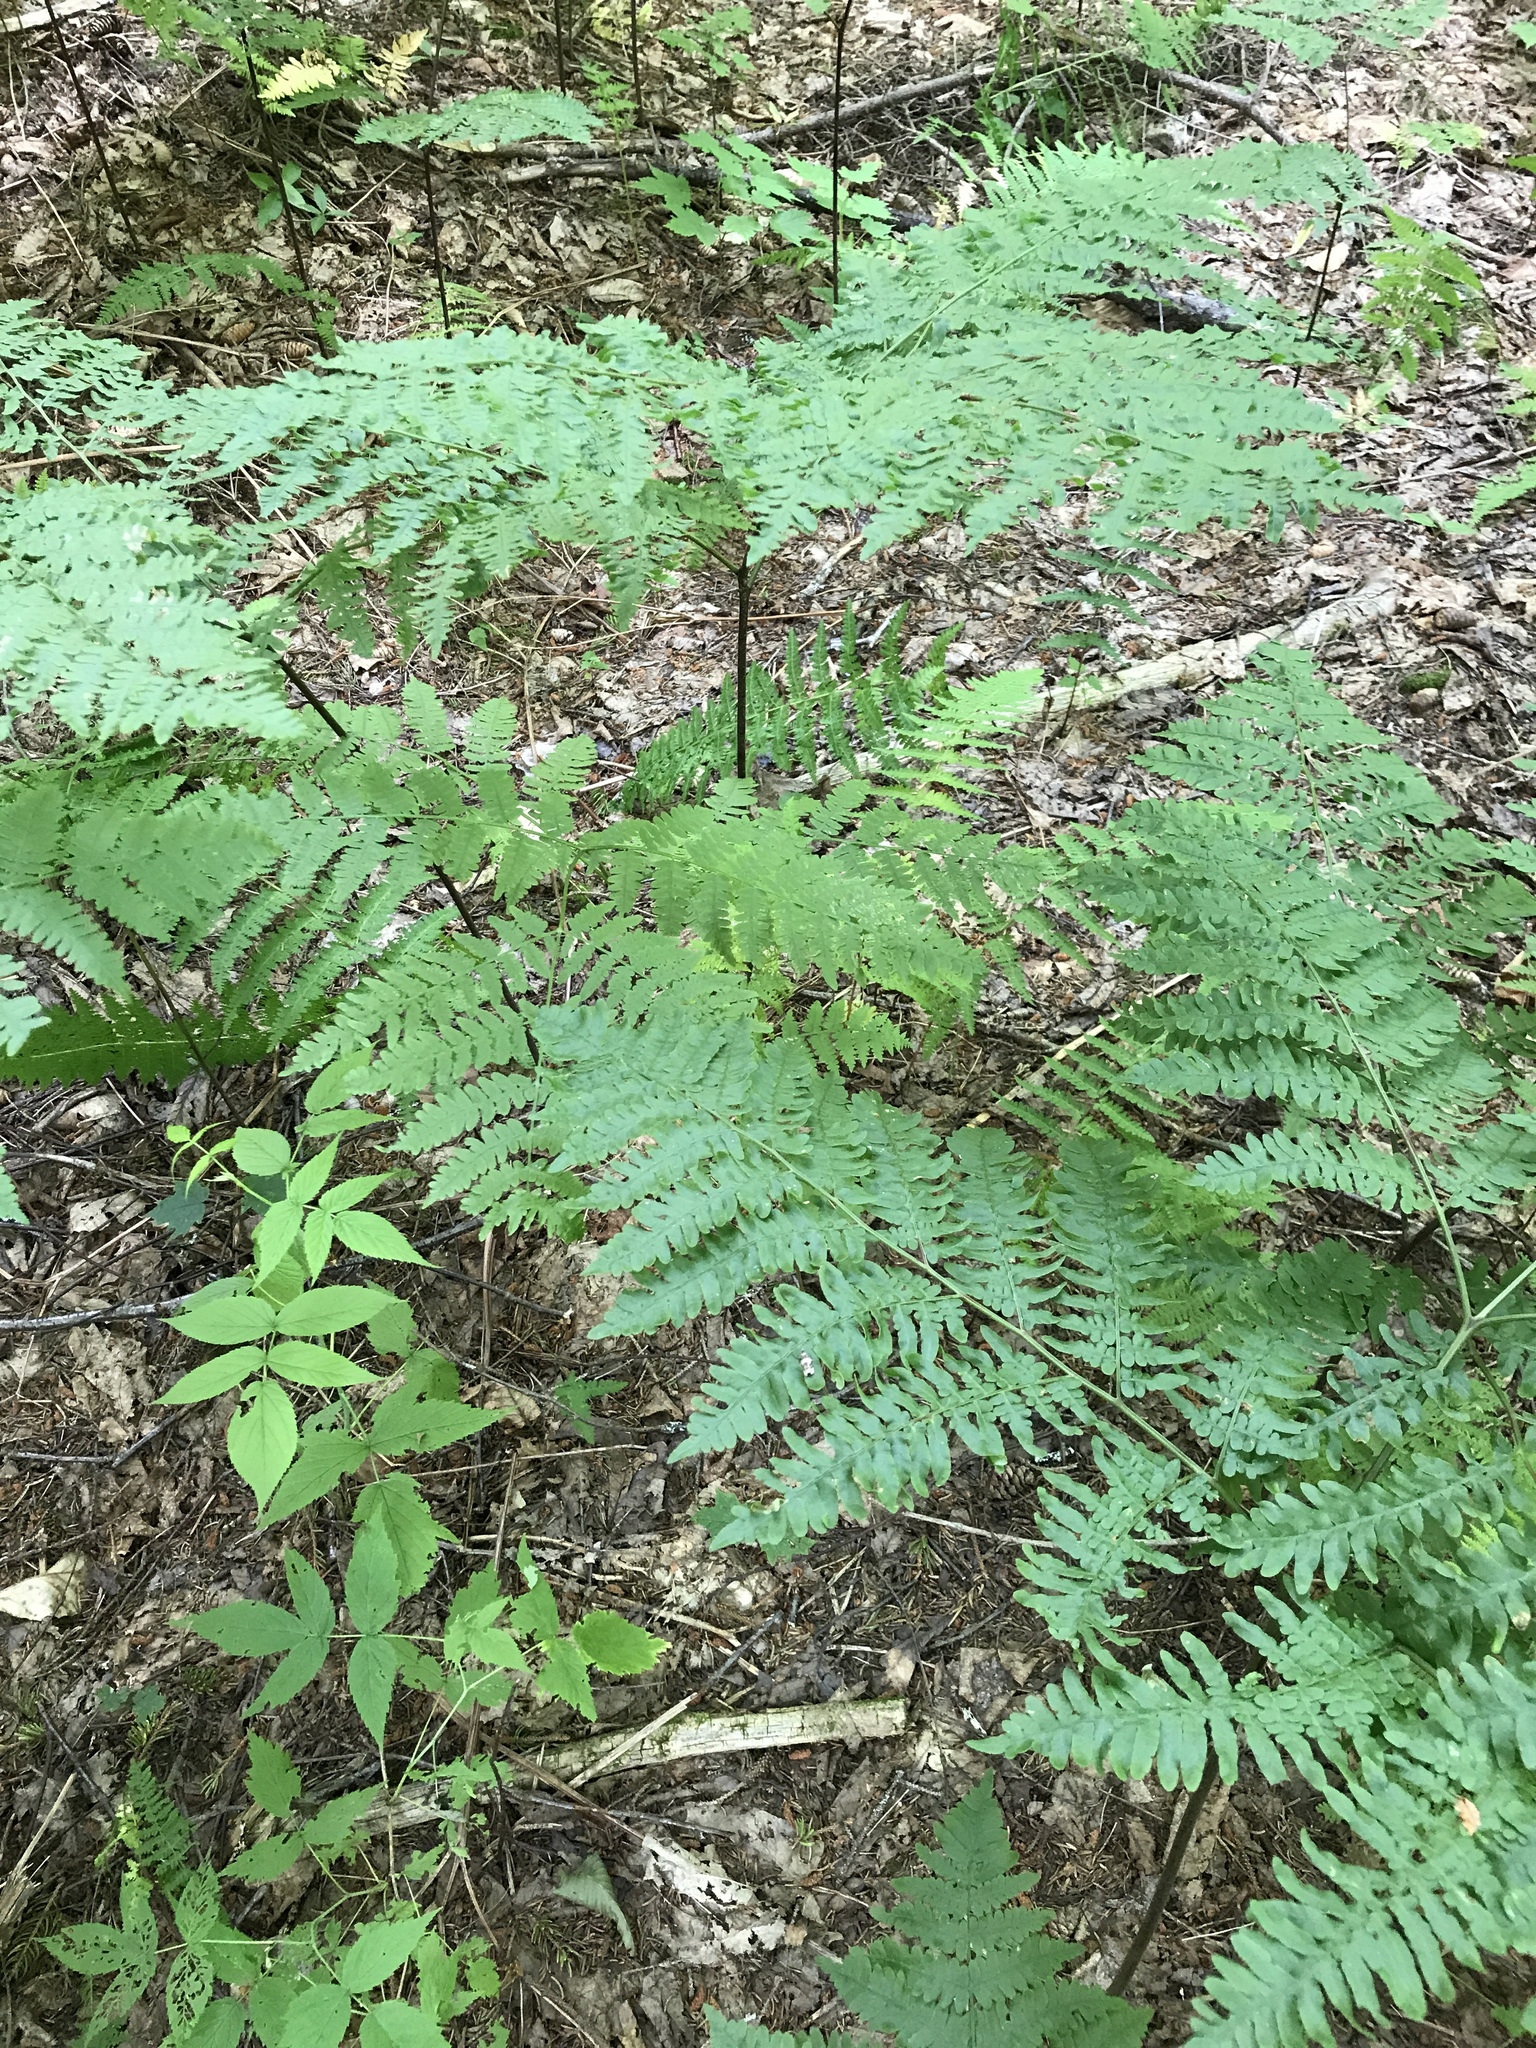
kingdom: Plantae
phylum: Tracheophyta
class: Polypodiopsida
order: Polypodiales
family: Dennstaedtiaceae
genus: Pteridium
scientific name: Pteridium aquilinum
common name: Bracken
